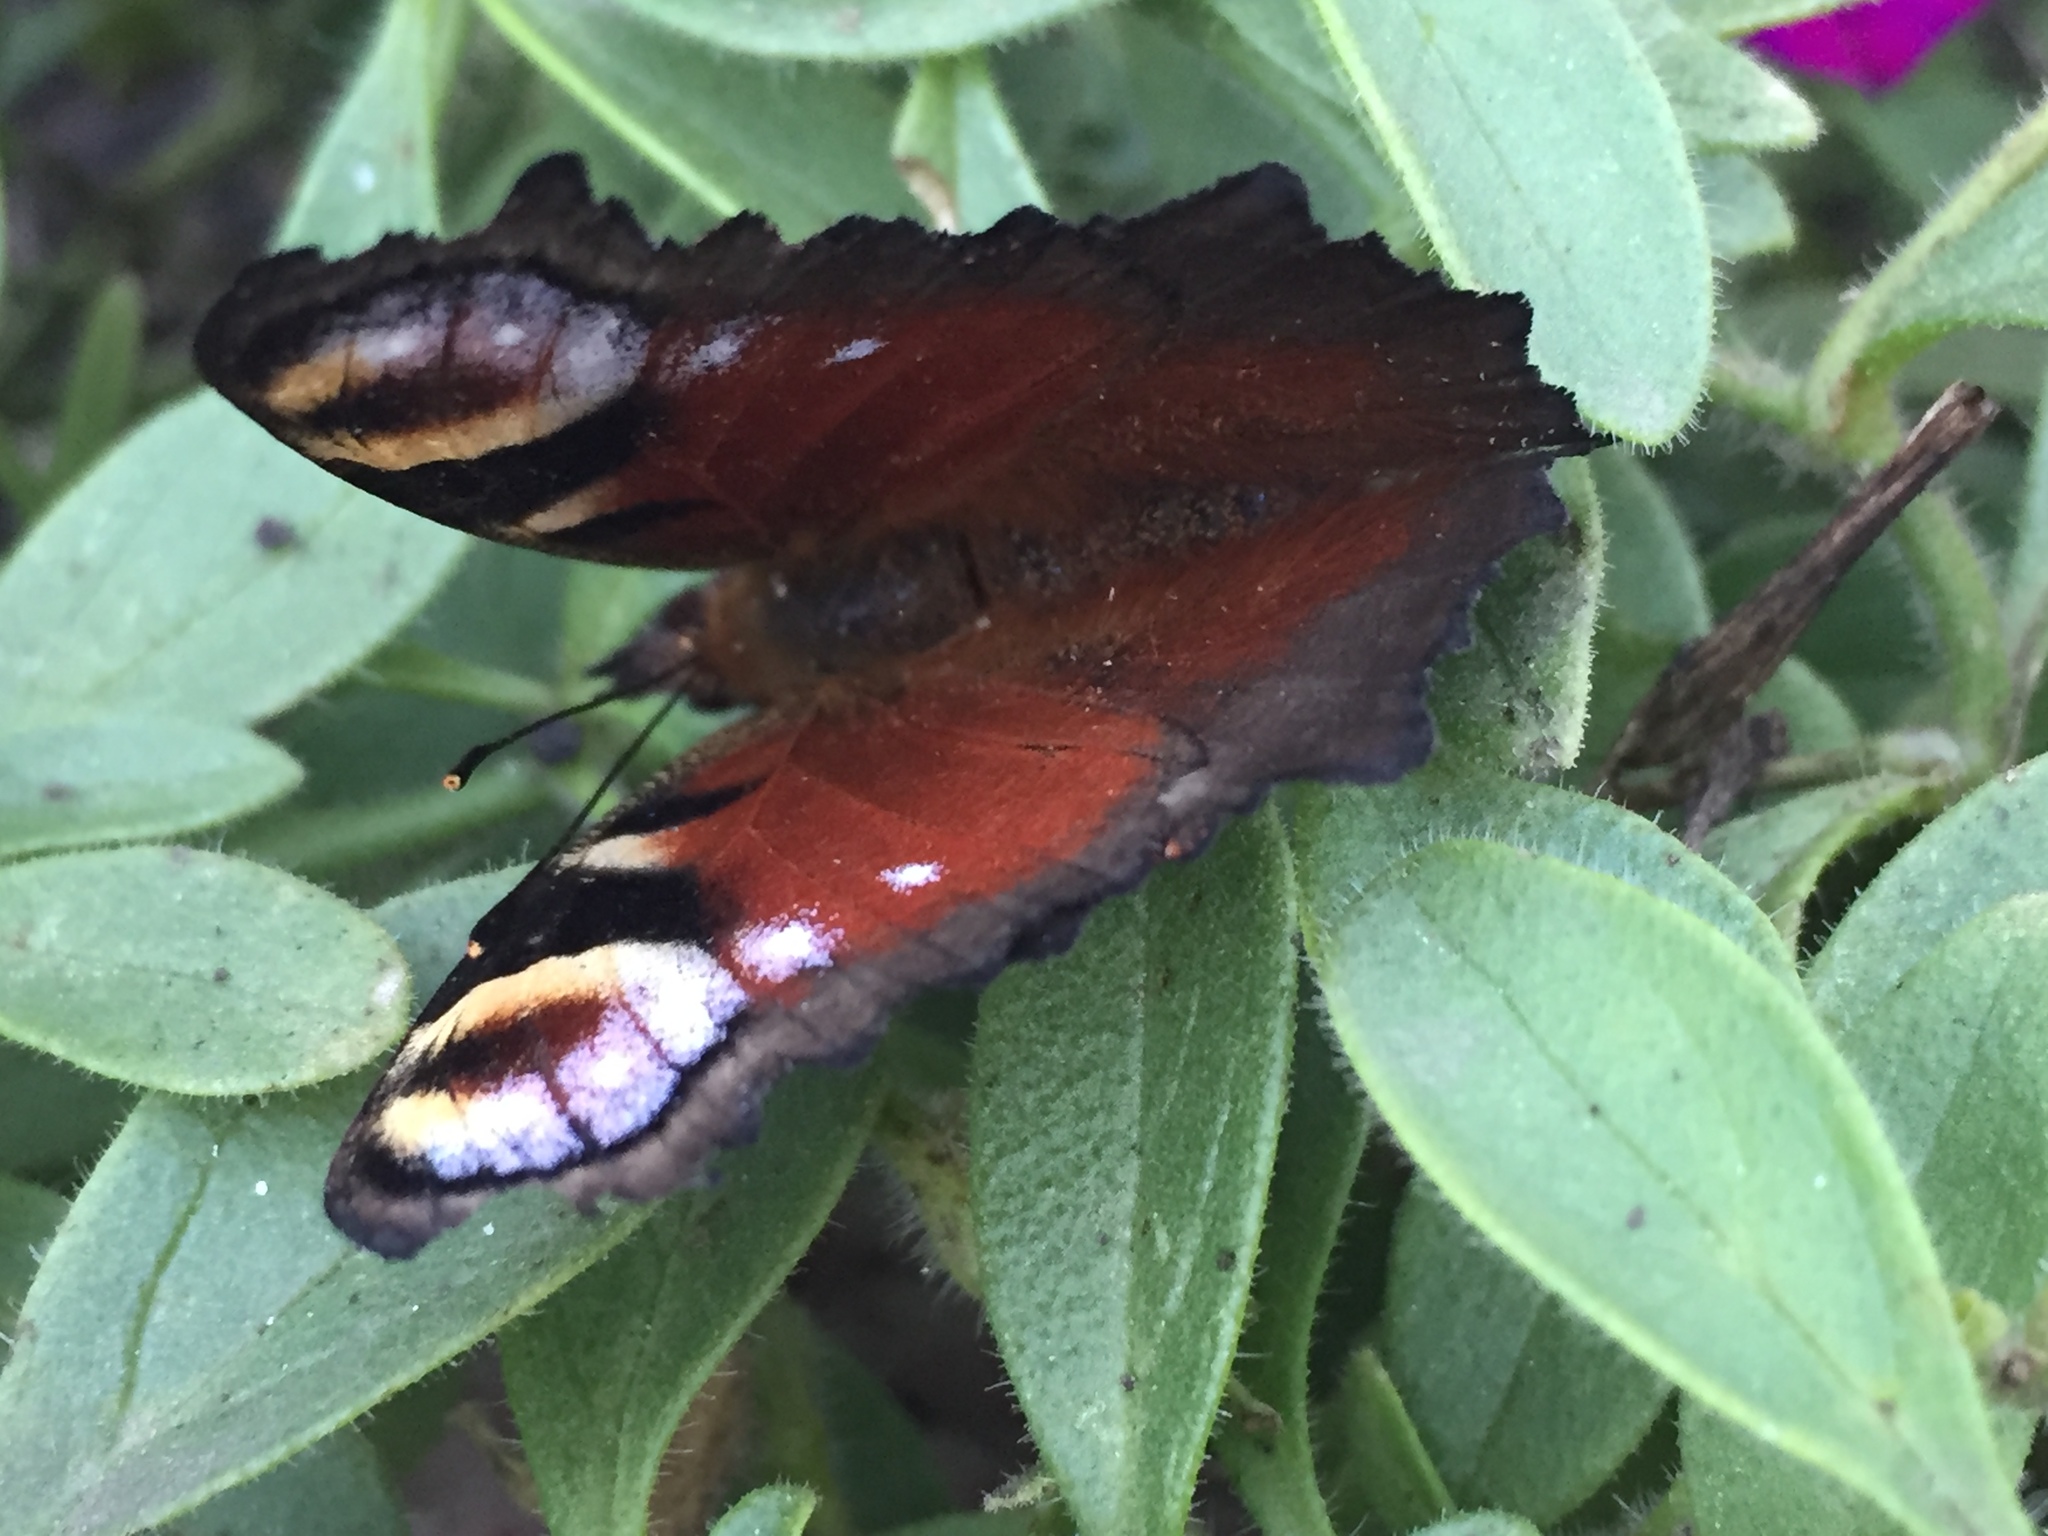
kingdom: Animalia
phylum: Arthropoda
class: Insecta
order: Lepidoptera
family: Nymphalidae
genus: Aglais
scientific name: Aglais io
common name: Peacock
